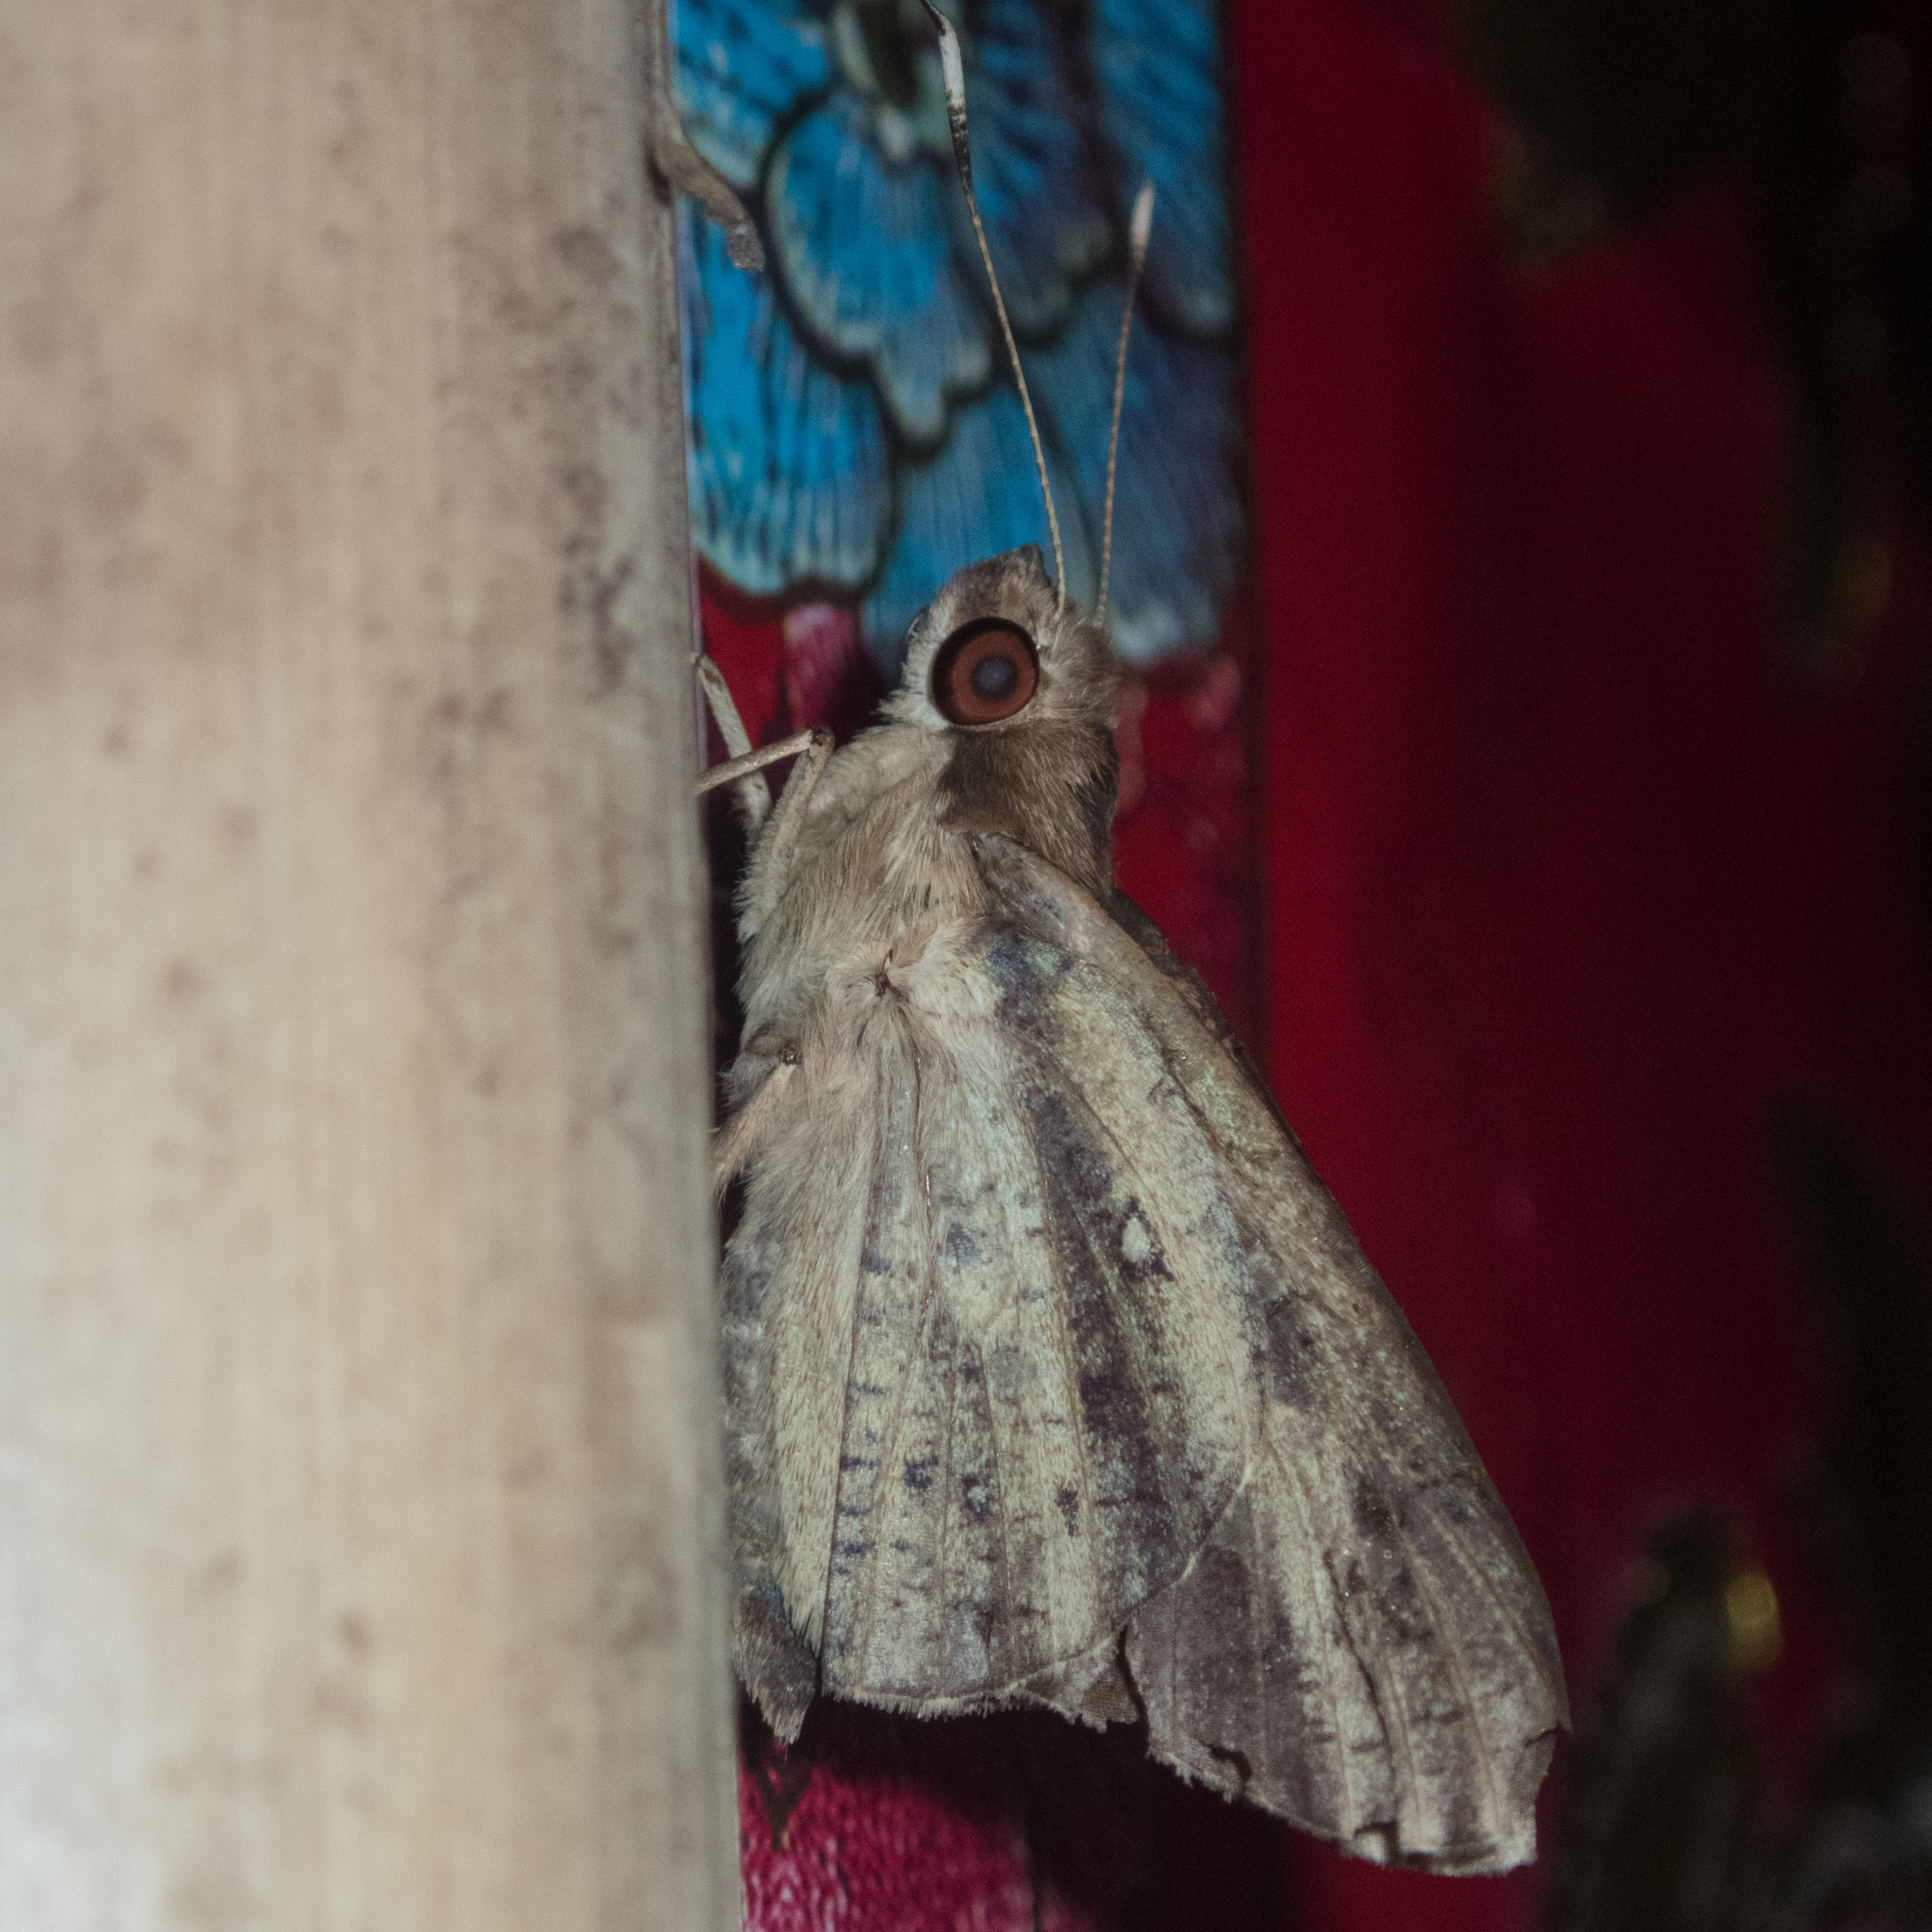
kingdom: Animalia
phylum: Arthropoda
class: Insecta
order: Lepidoptera
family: Hesperiidae
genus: Hidari
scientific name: Hidari bhawani
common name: Veined palmer
